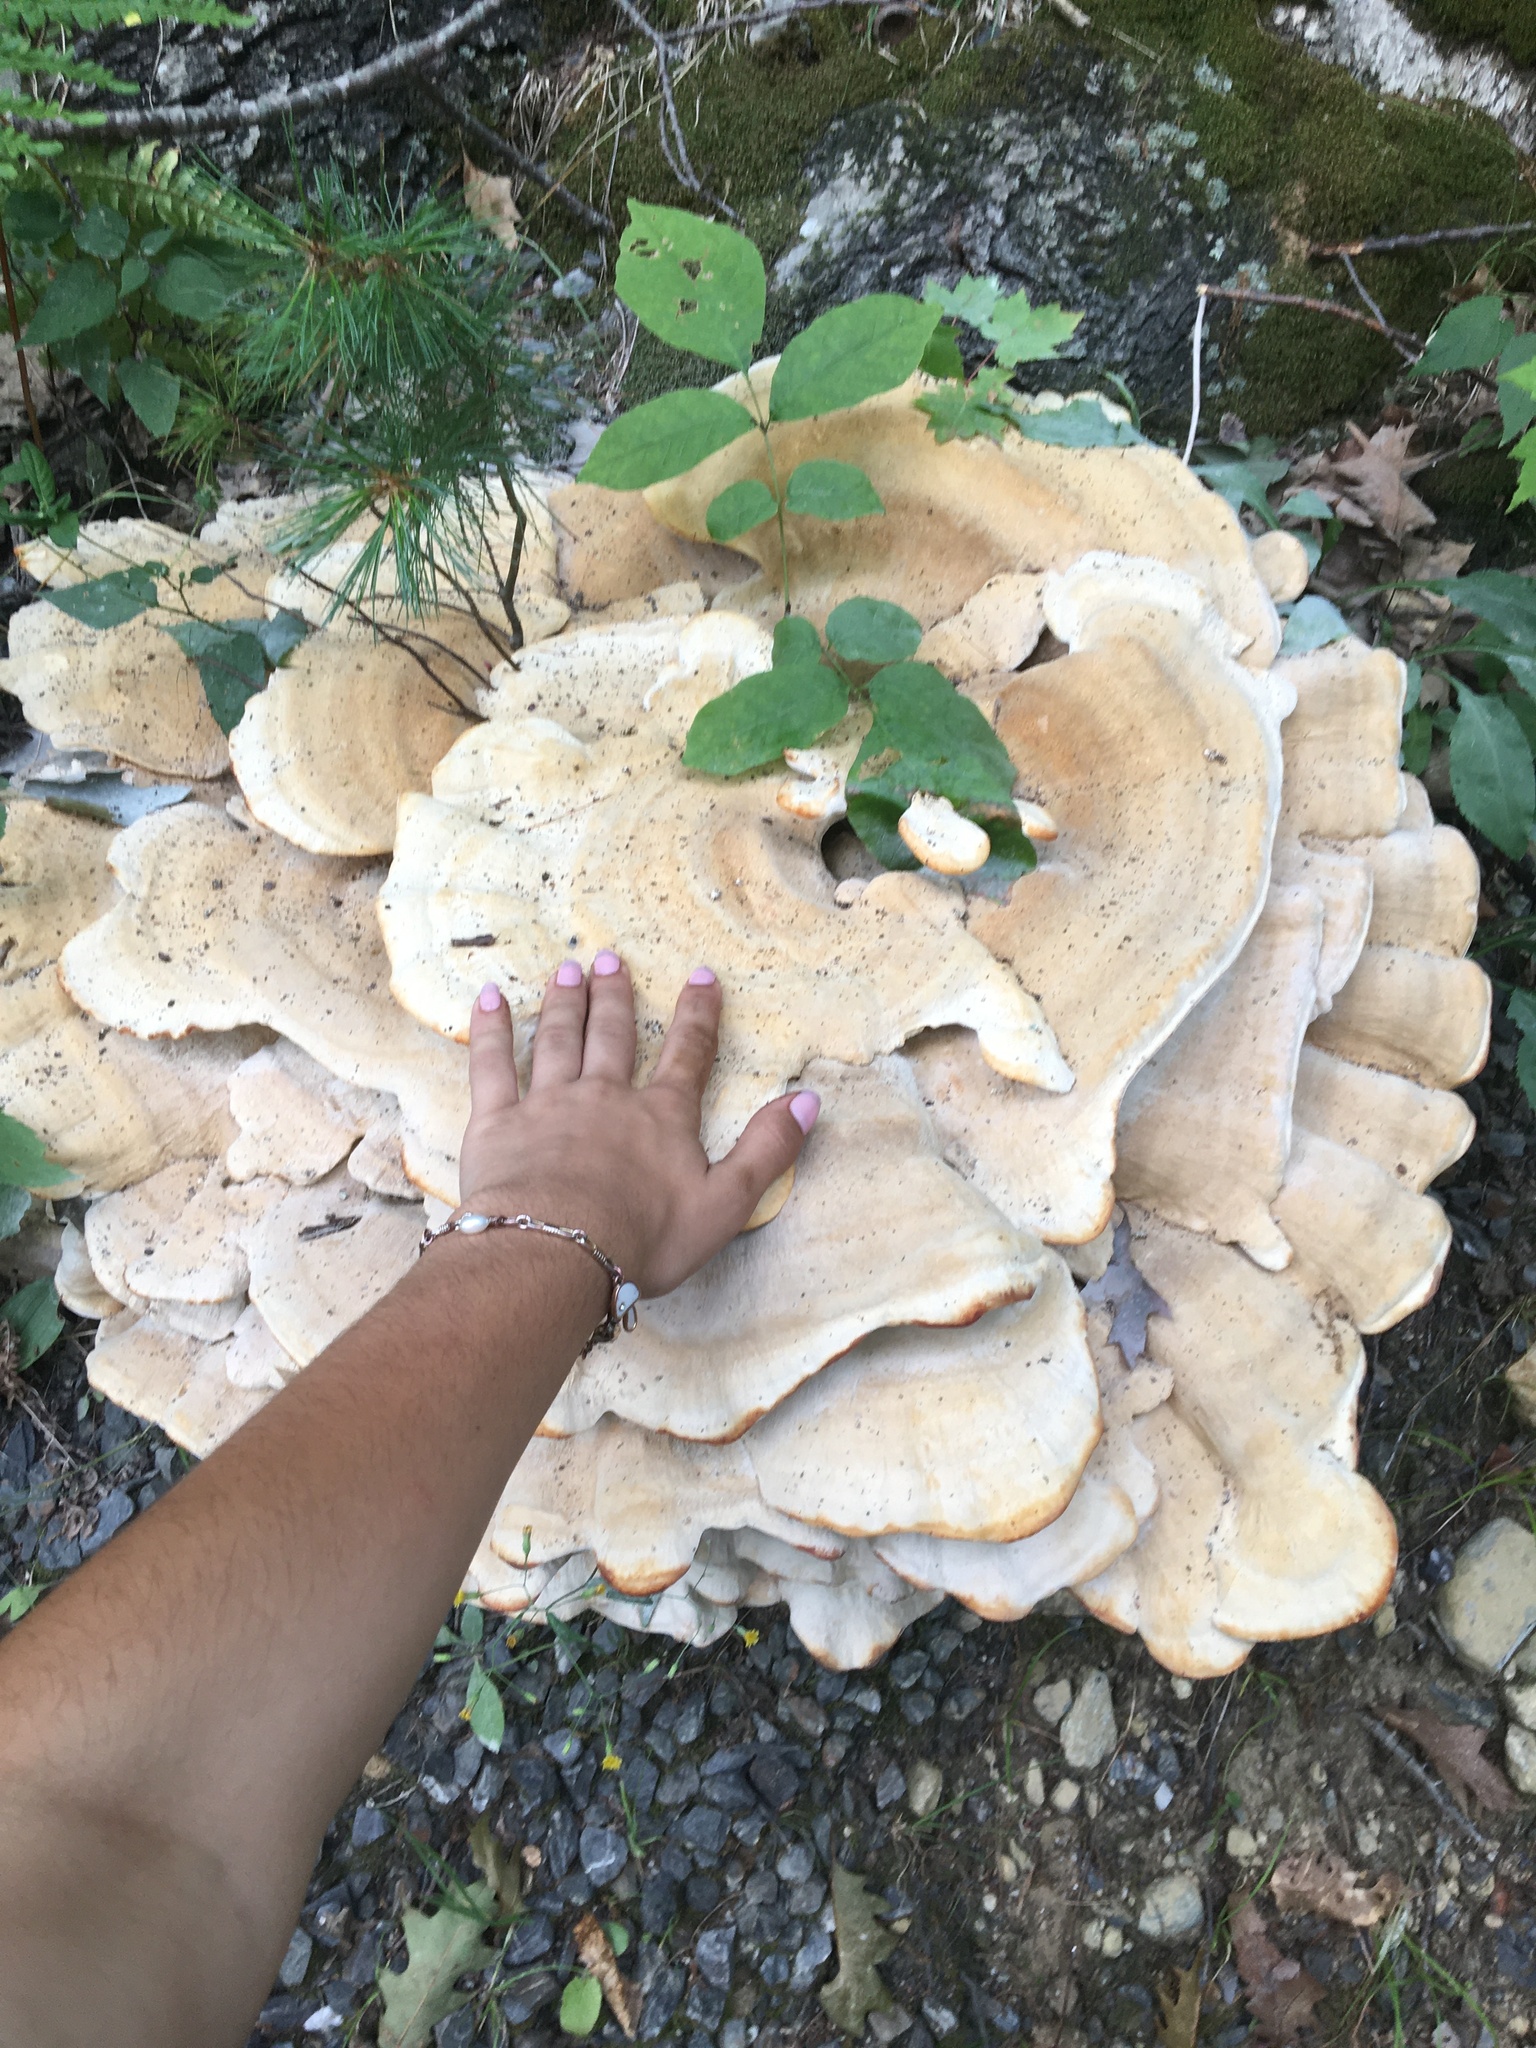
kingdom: Fungi
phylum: Basidiomycota
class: Agaricomycetes
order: Russulales
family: Bondarzewiaceae
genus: Bondarzewia
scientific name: Bondarzewia berkeleyi
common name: Berkeley's polypore
